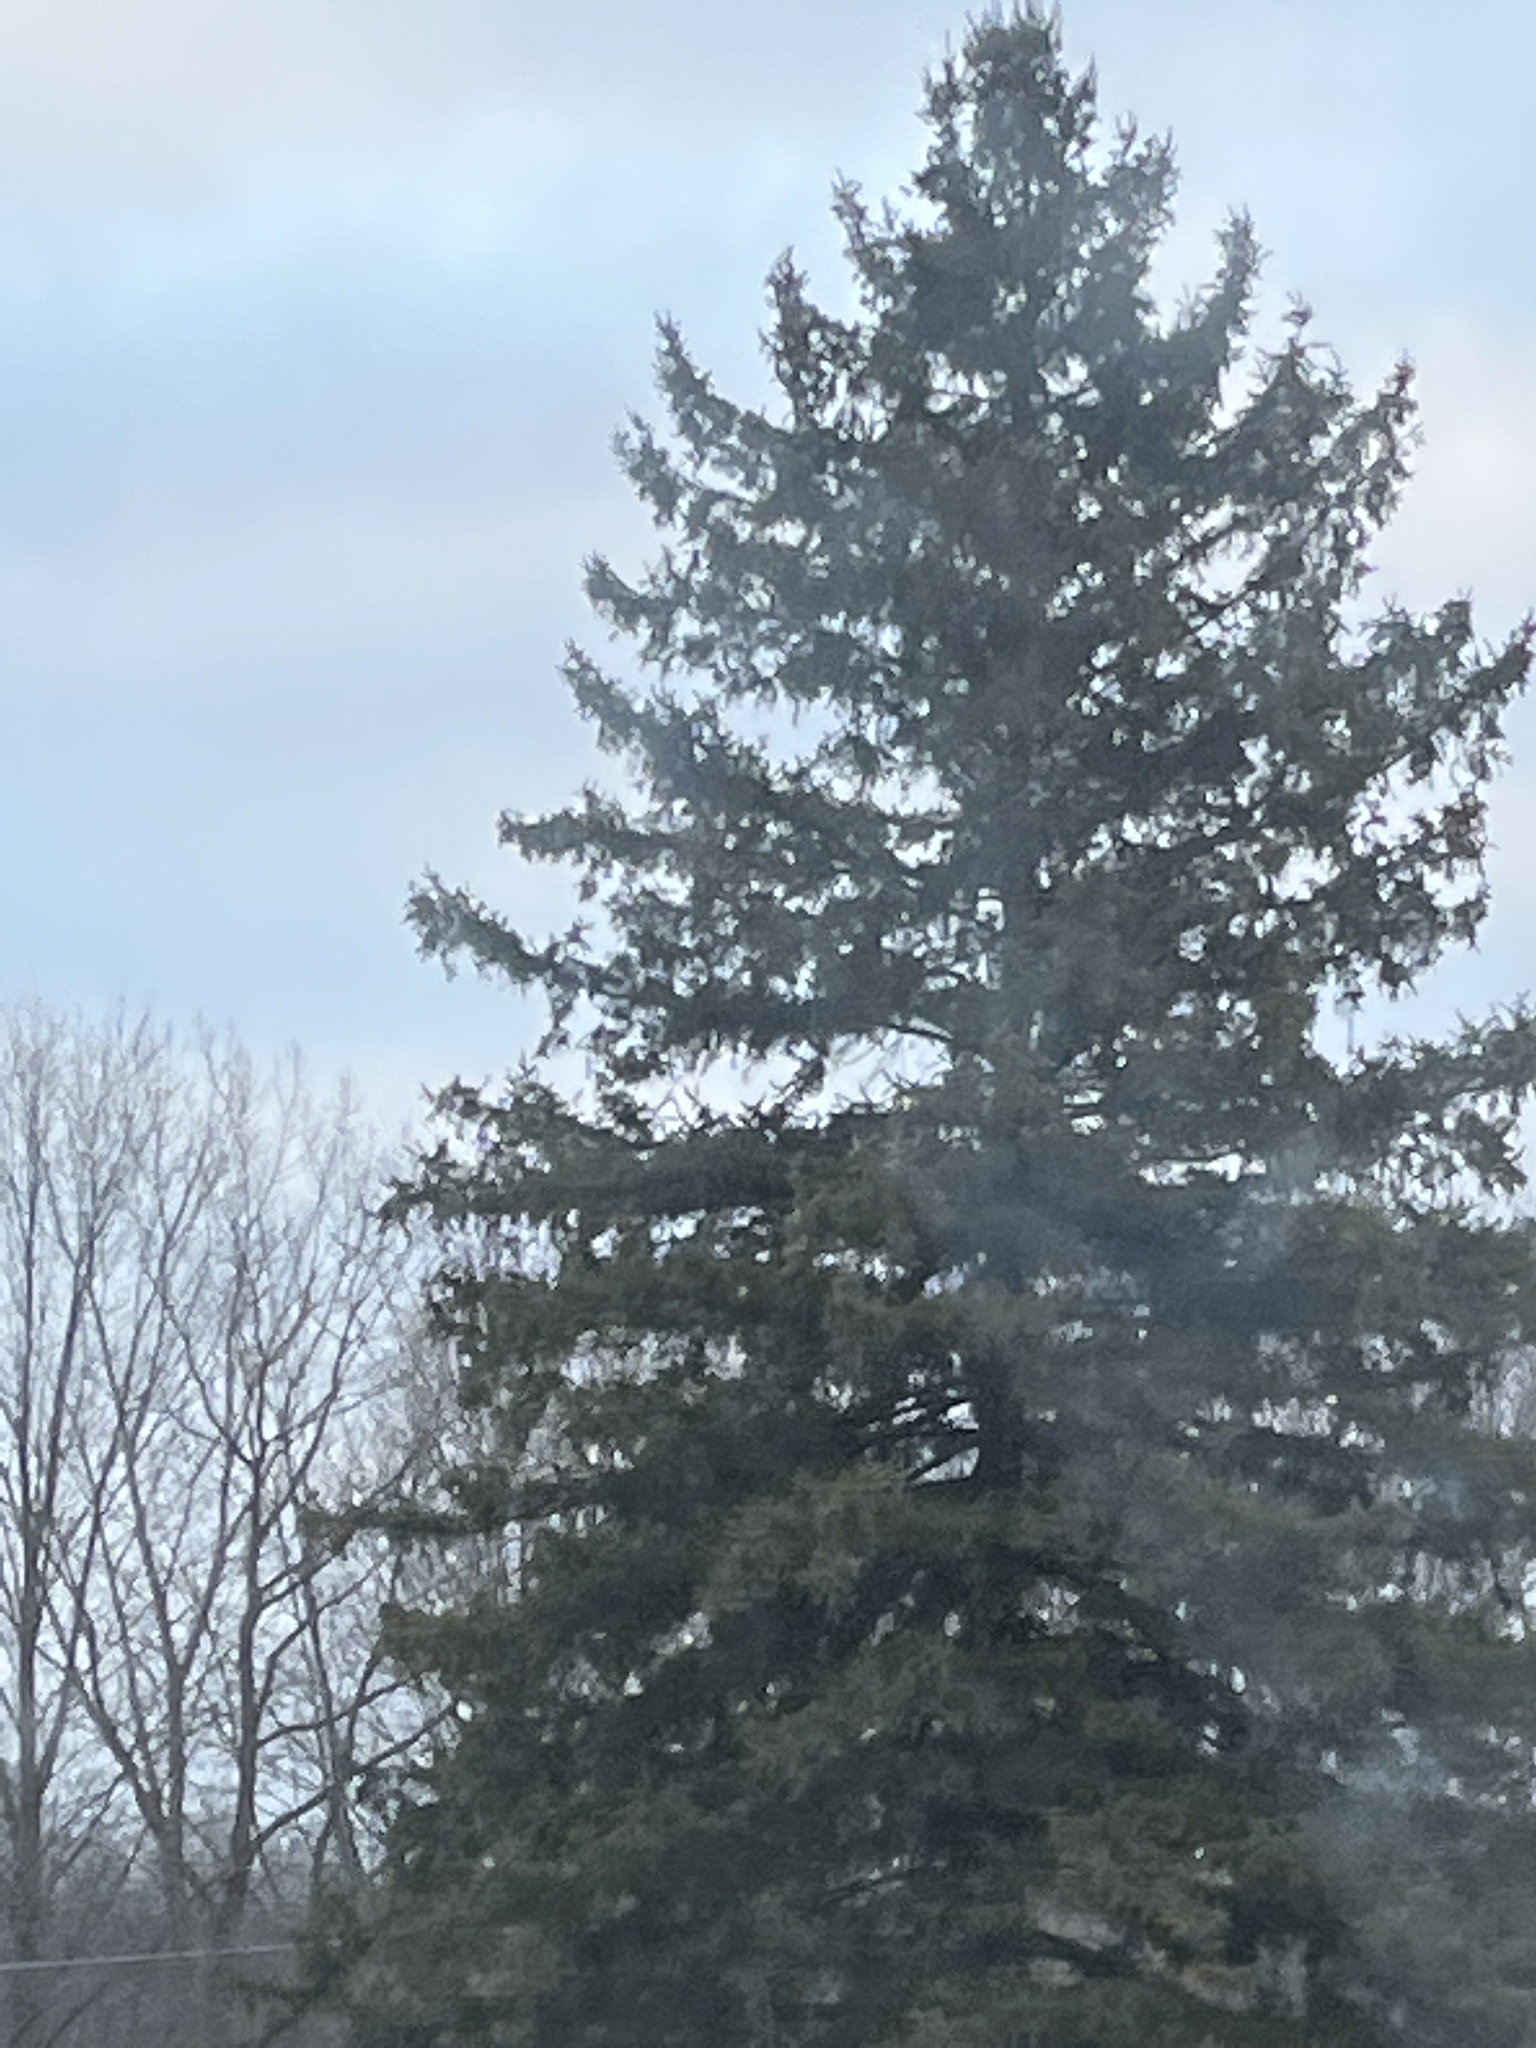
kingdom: Plantae
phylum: Tracheophyta
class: Pinopsida
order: Pinales
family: Pinaceae
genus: Picea
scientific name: Picea pungens
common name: Colorado spruce
